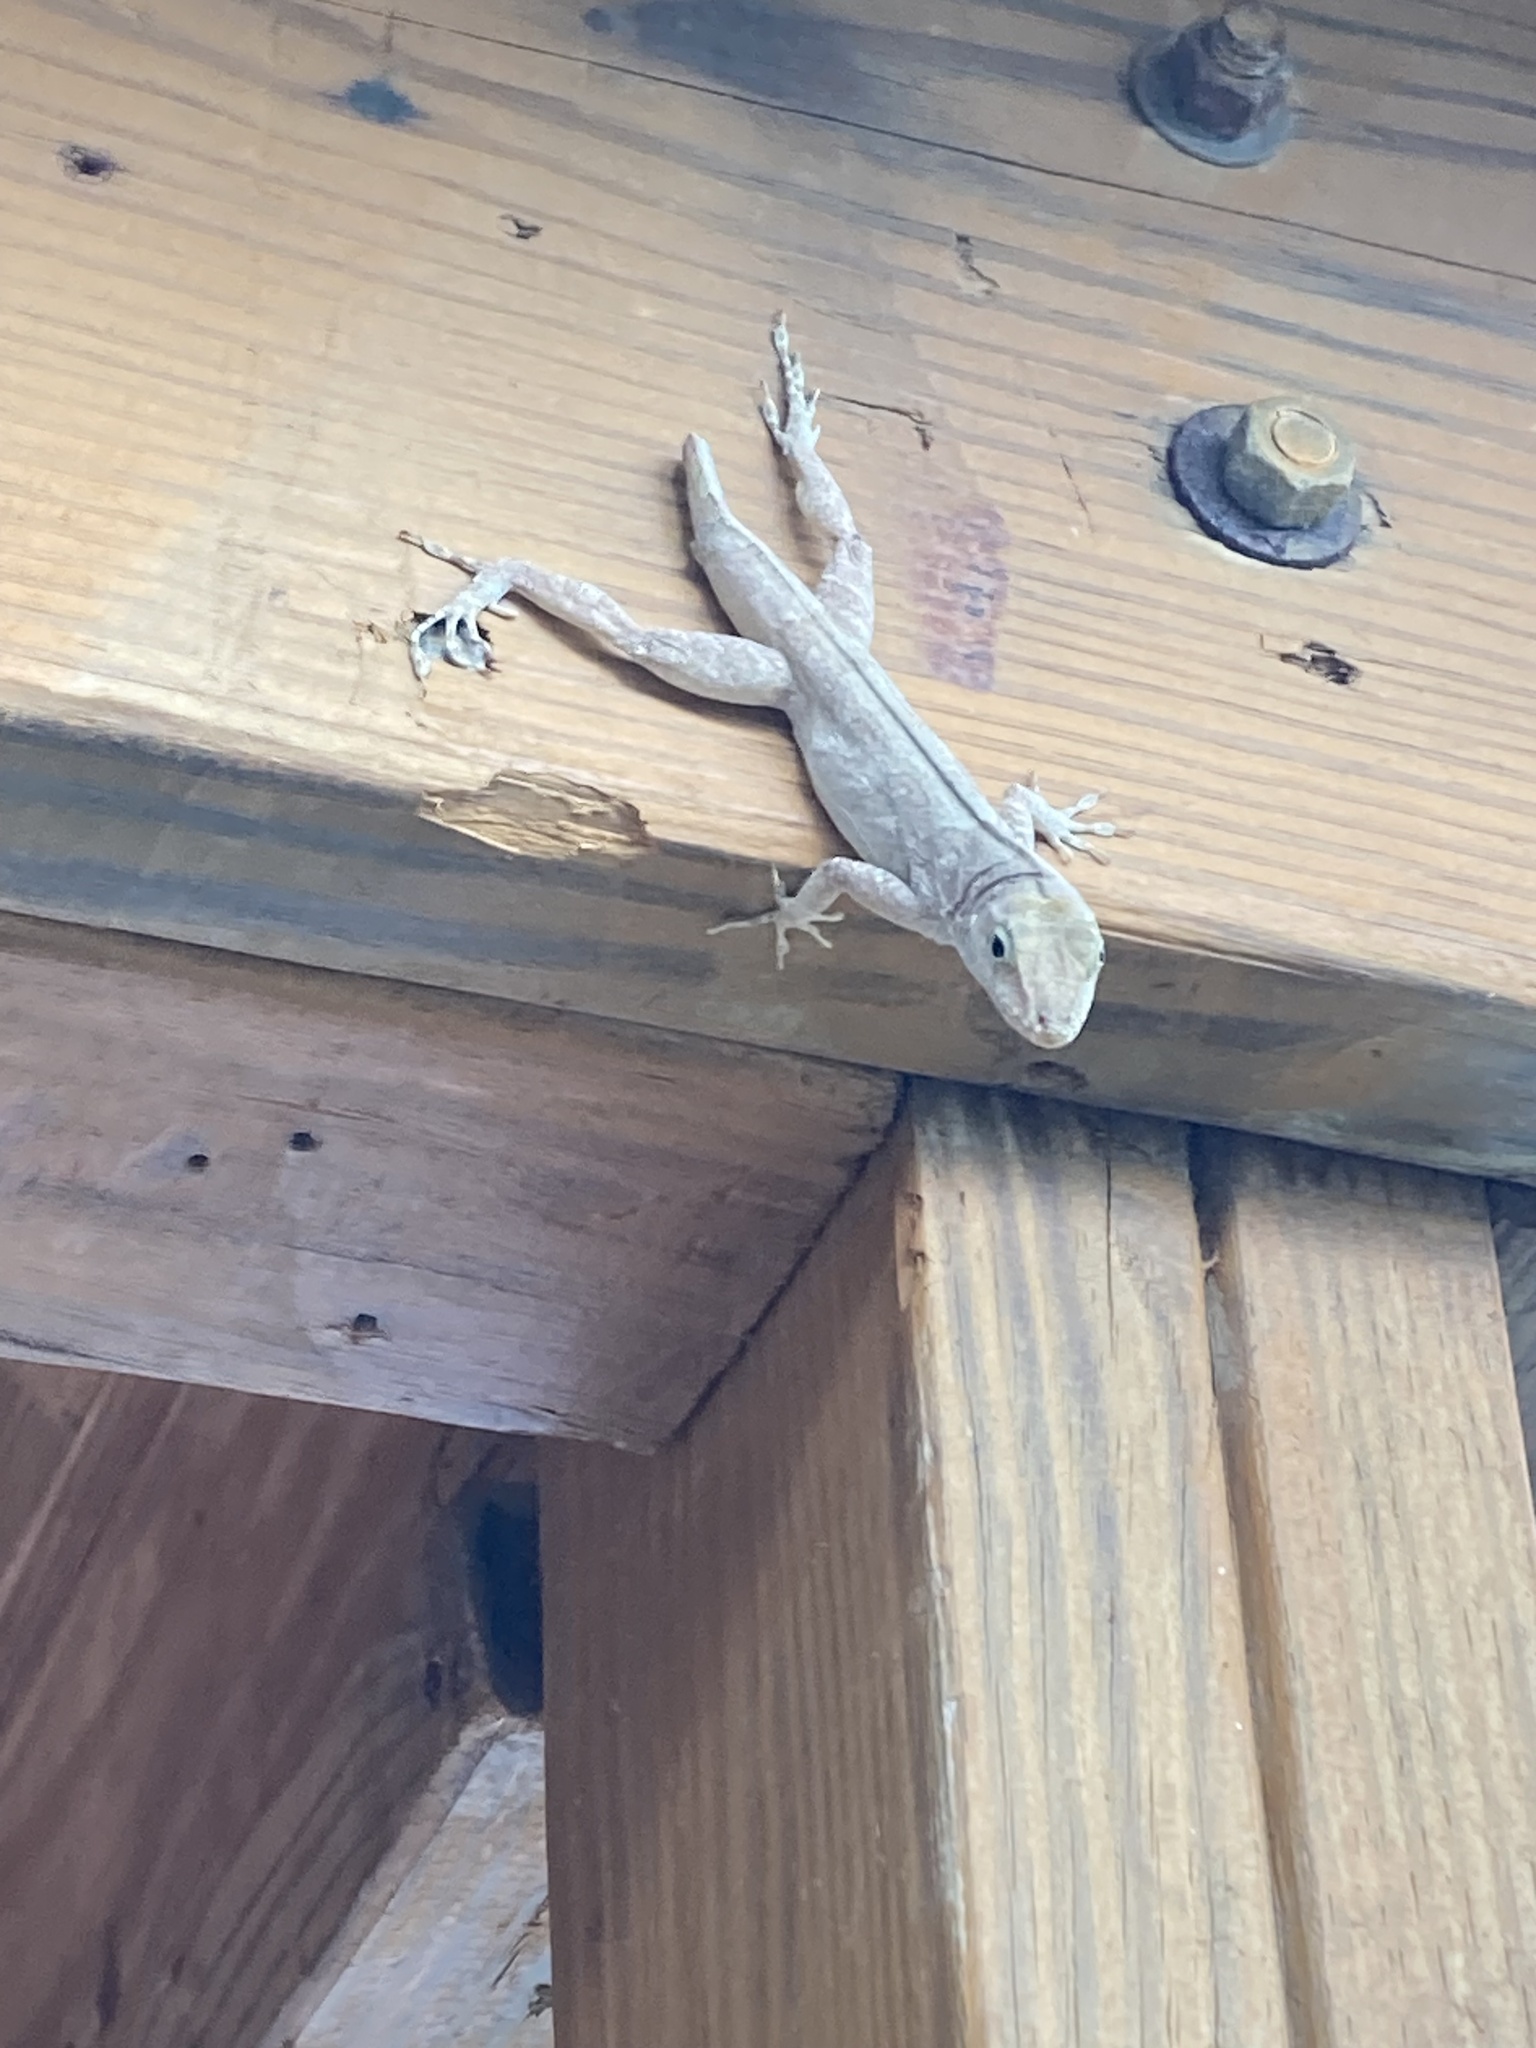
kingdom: Animalia
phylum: Chordata
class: Squamata
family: Dactyloidae
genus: Anolis
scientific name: Anolis cristatellus
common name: Crested anole
